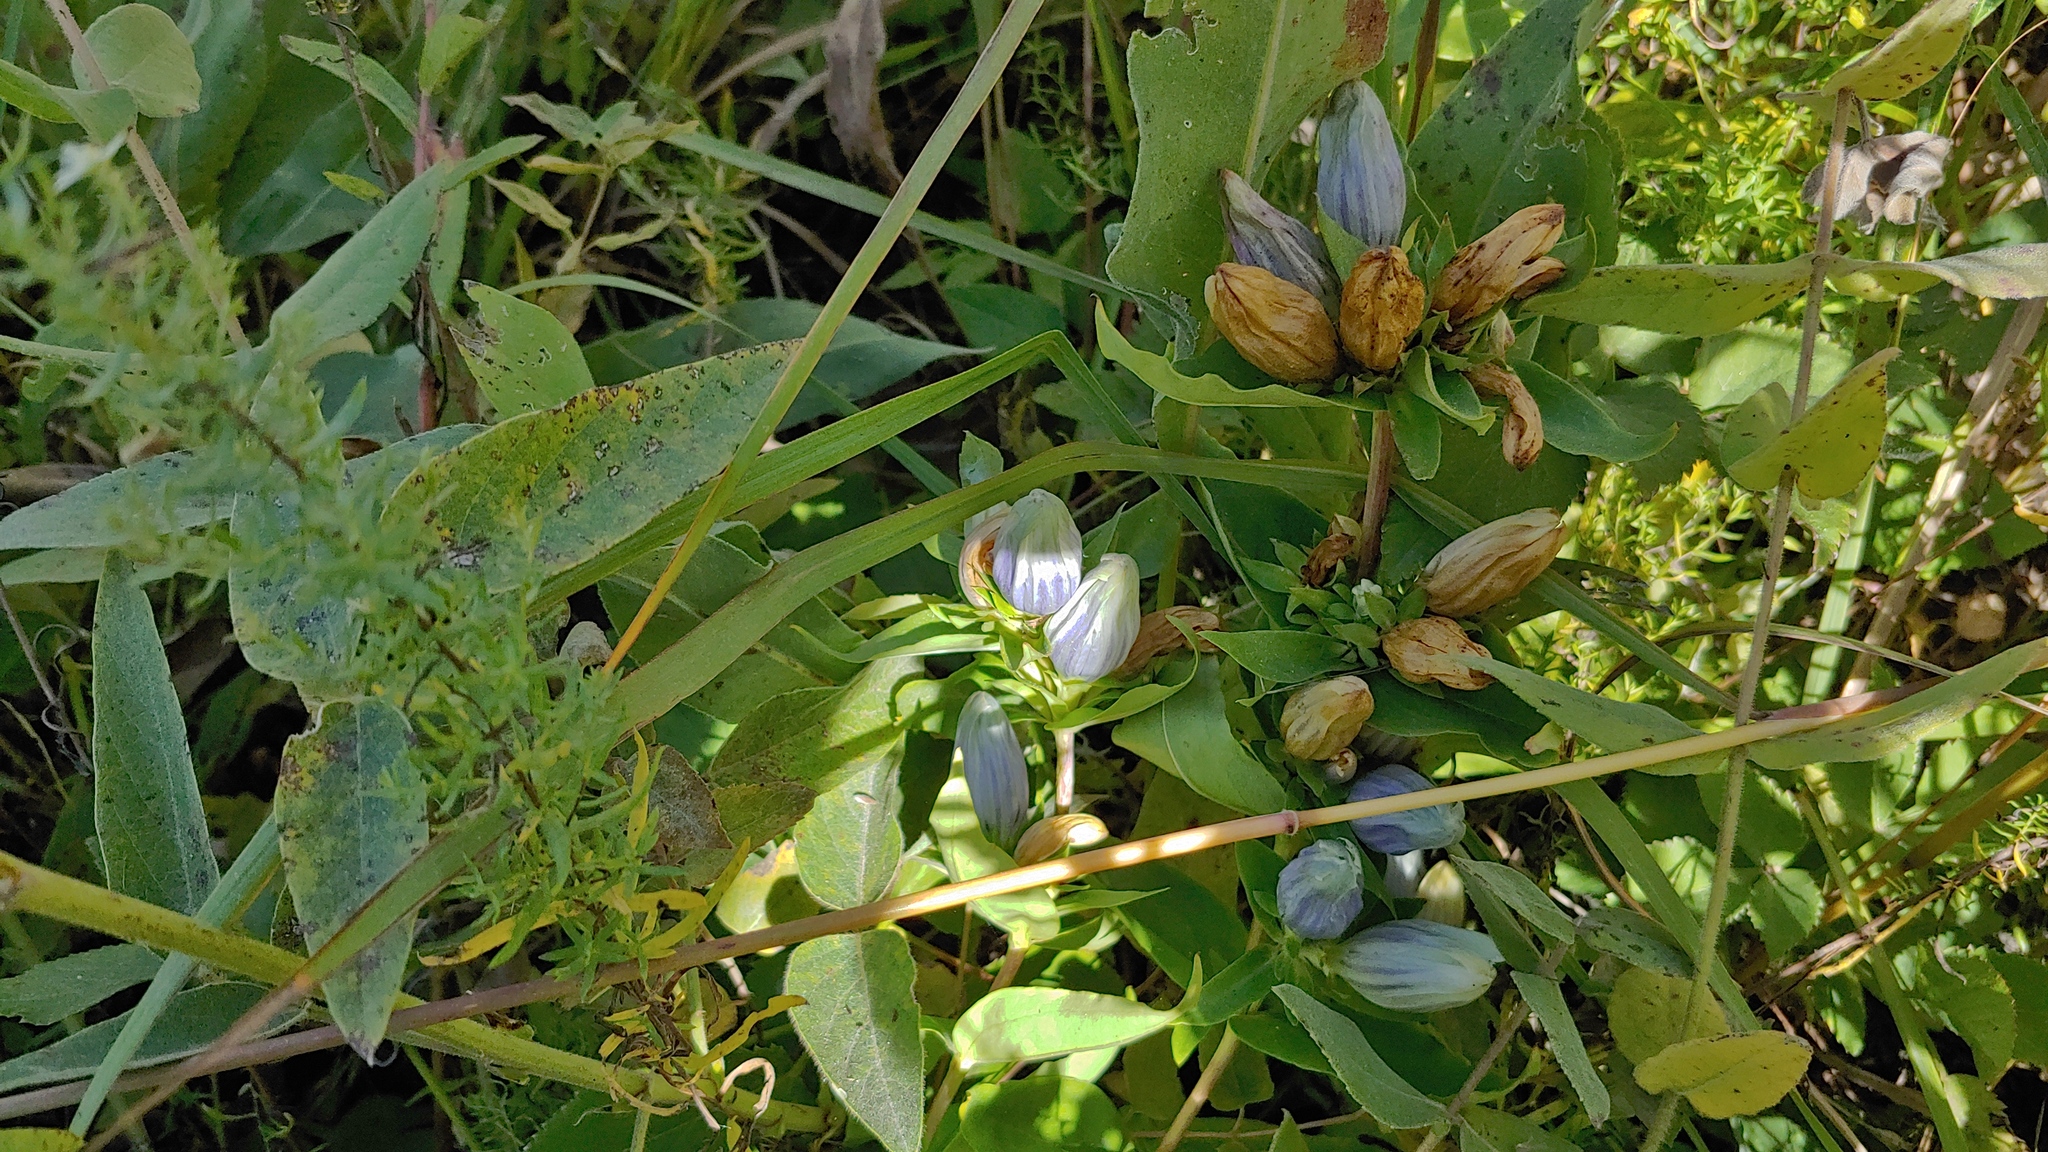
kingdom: Plantae
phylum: Tracheophyta
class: Magnoliopsida
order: Gentianales
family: Gentianaceae
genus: Gentiana
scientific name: Gentiana pallidocyanea
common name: Hybrid bottle gentian
